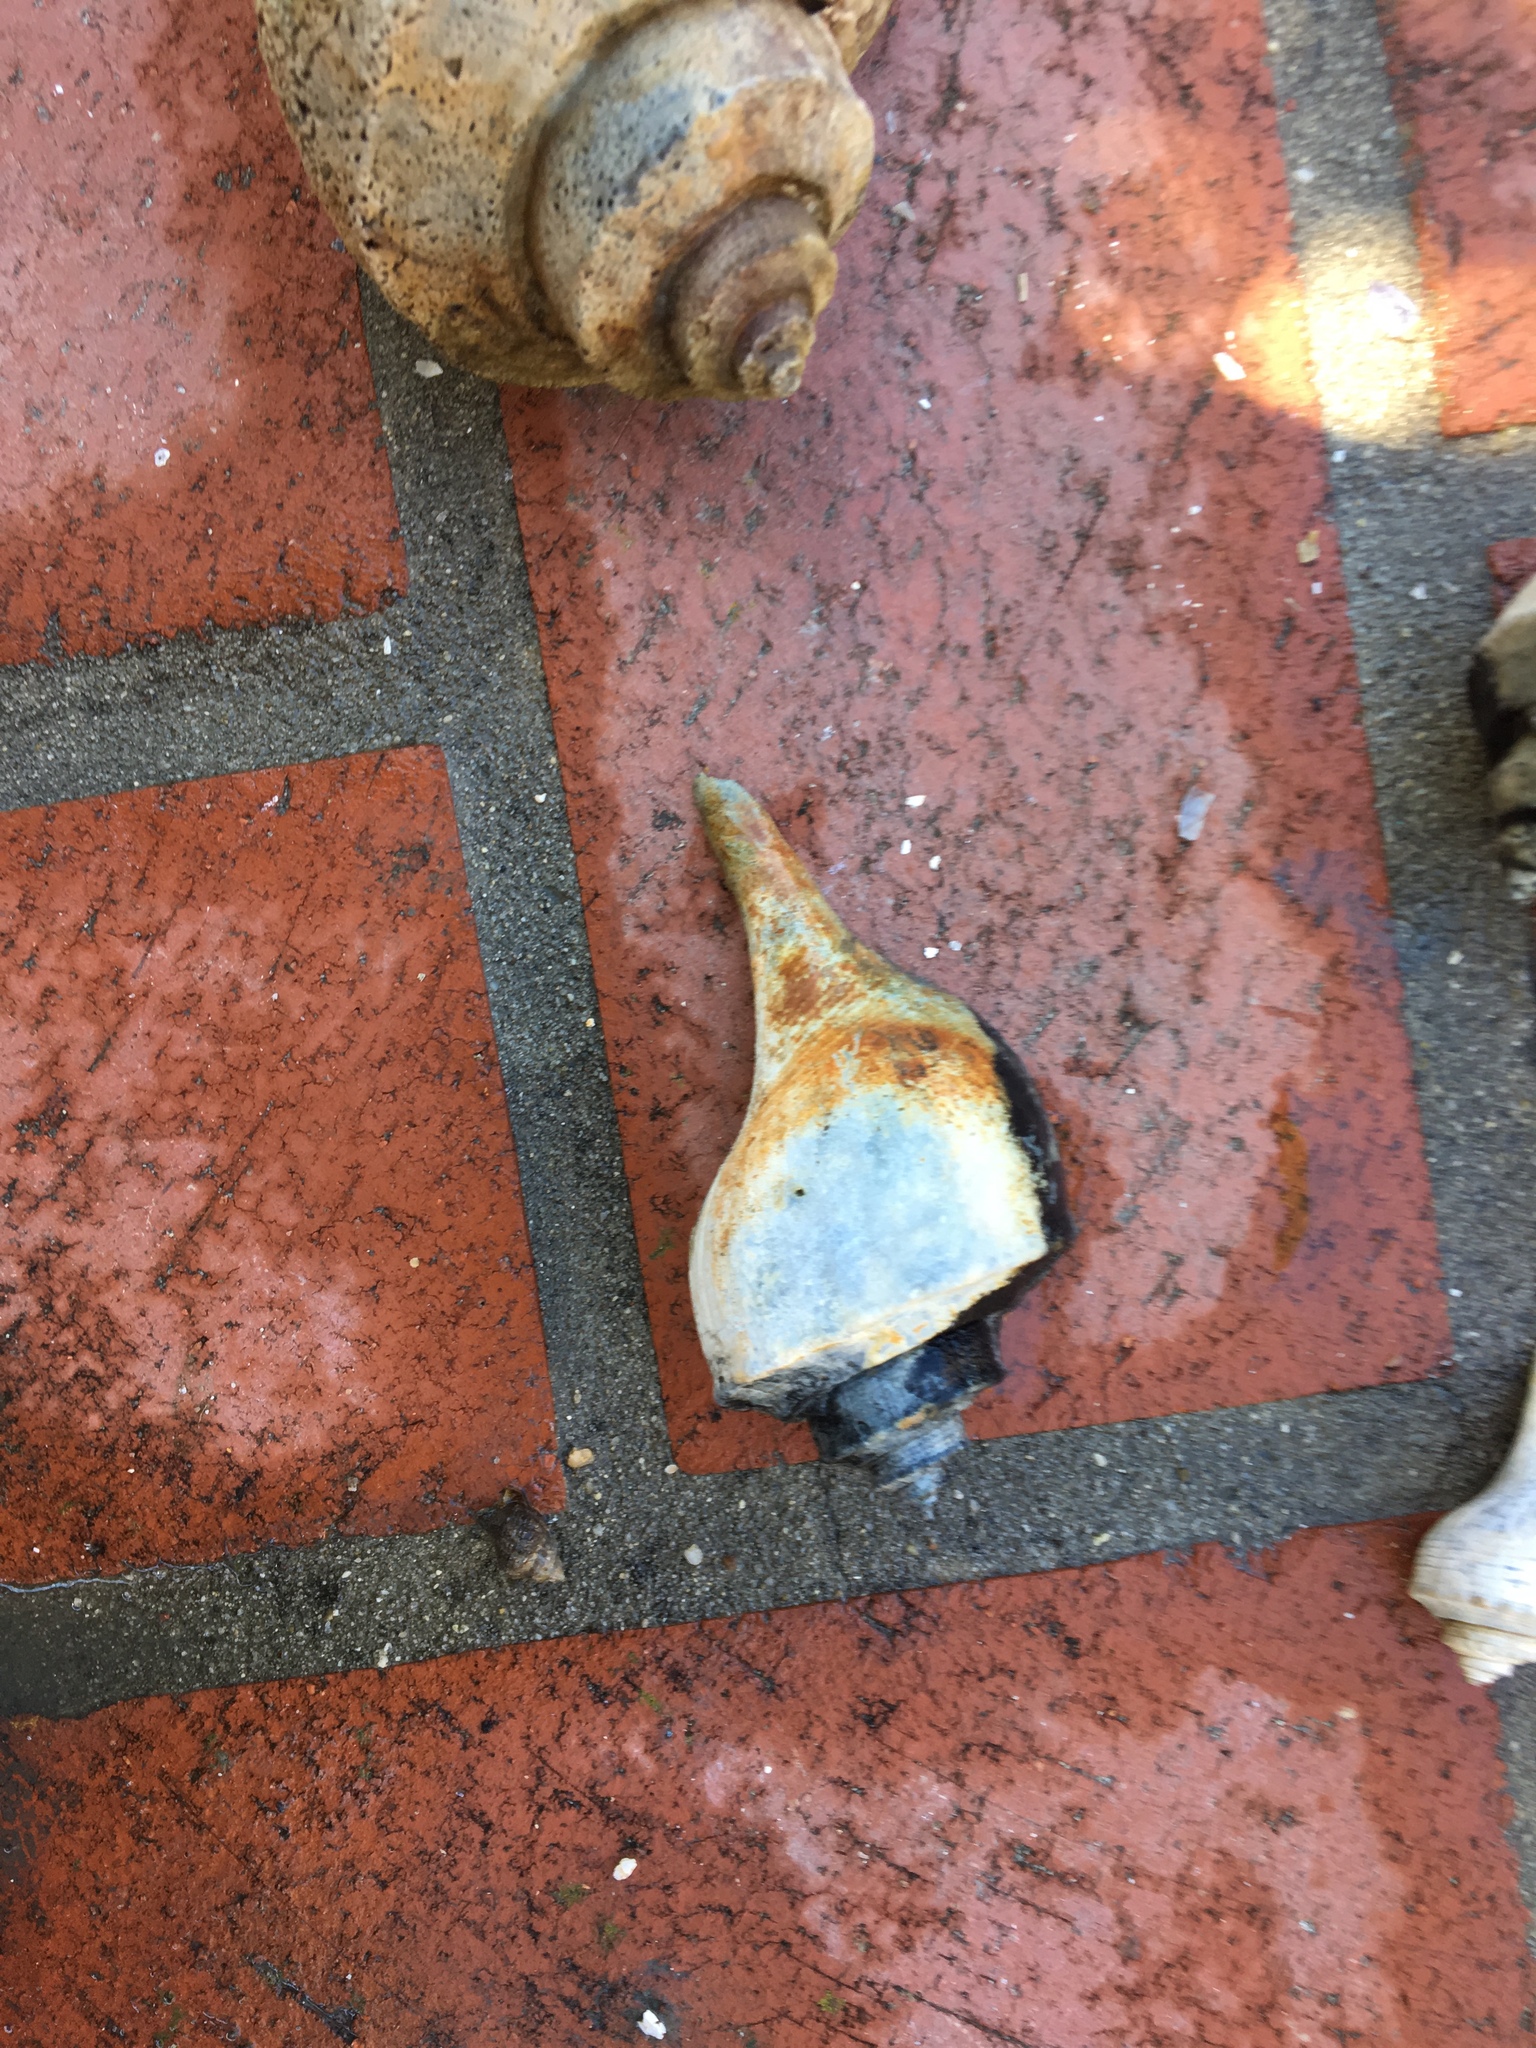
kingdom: Animalia
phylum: Mollusca
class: Gastropoda
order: Neogastropoda
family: Busyconidae
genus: Busycotypus
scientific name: Busycotypus canaliculatus
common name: Channeled whelk
